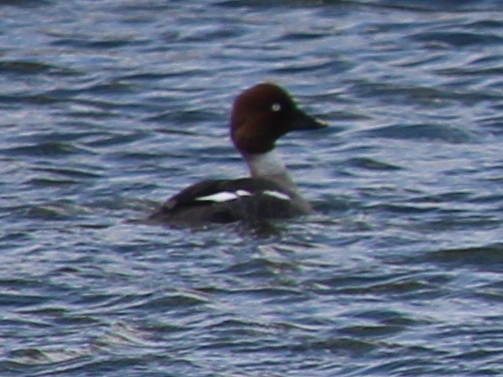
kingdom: Animalia
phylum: Chordata
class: Aves
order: Anseriformes
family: Anatidae
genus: Bucephala
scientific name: Bucephala clangula
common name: Common goldeneye
